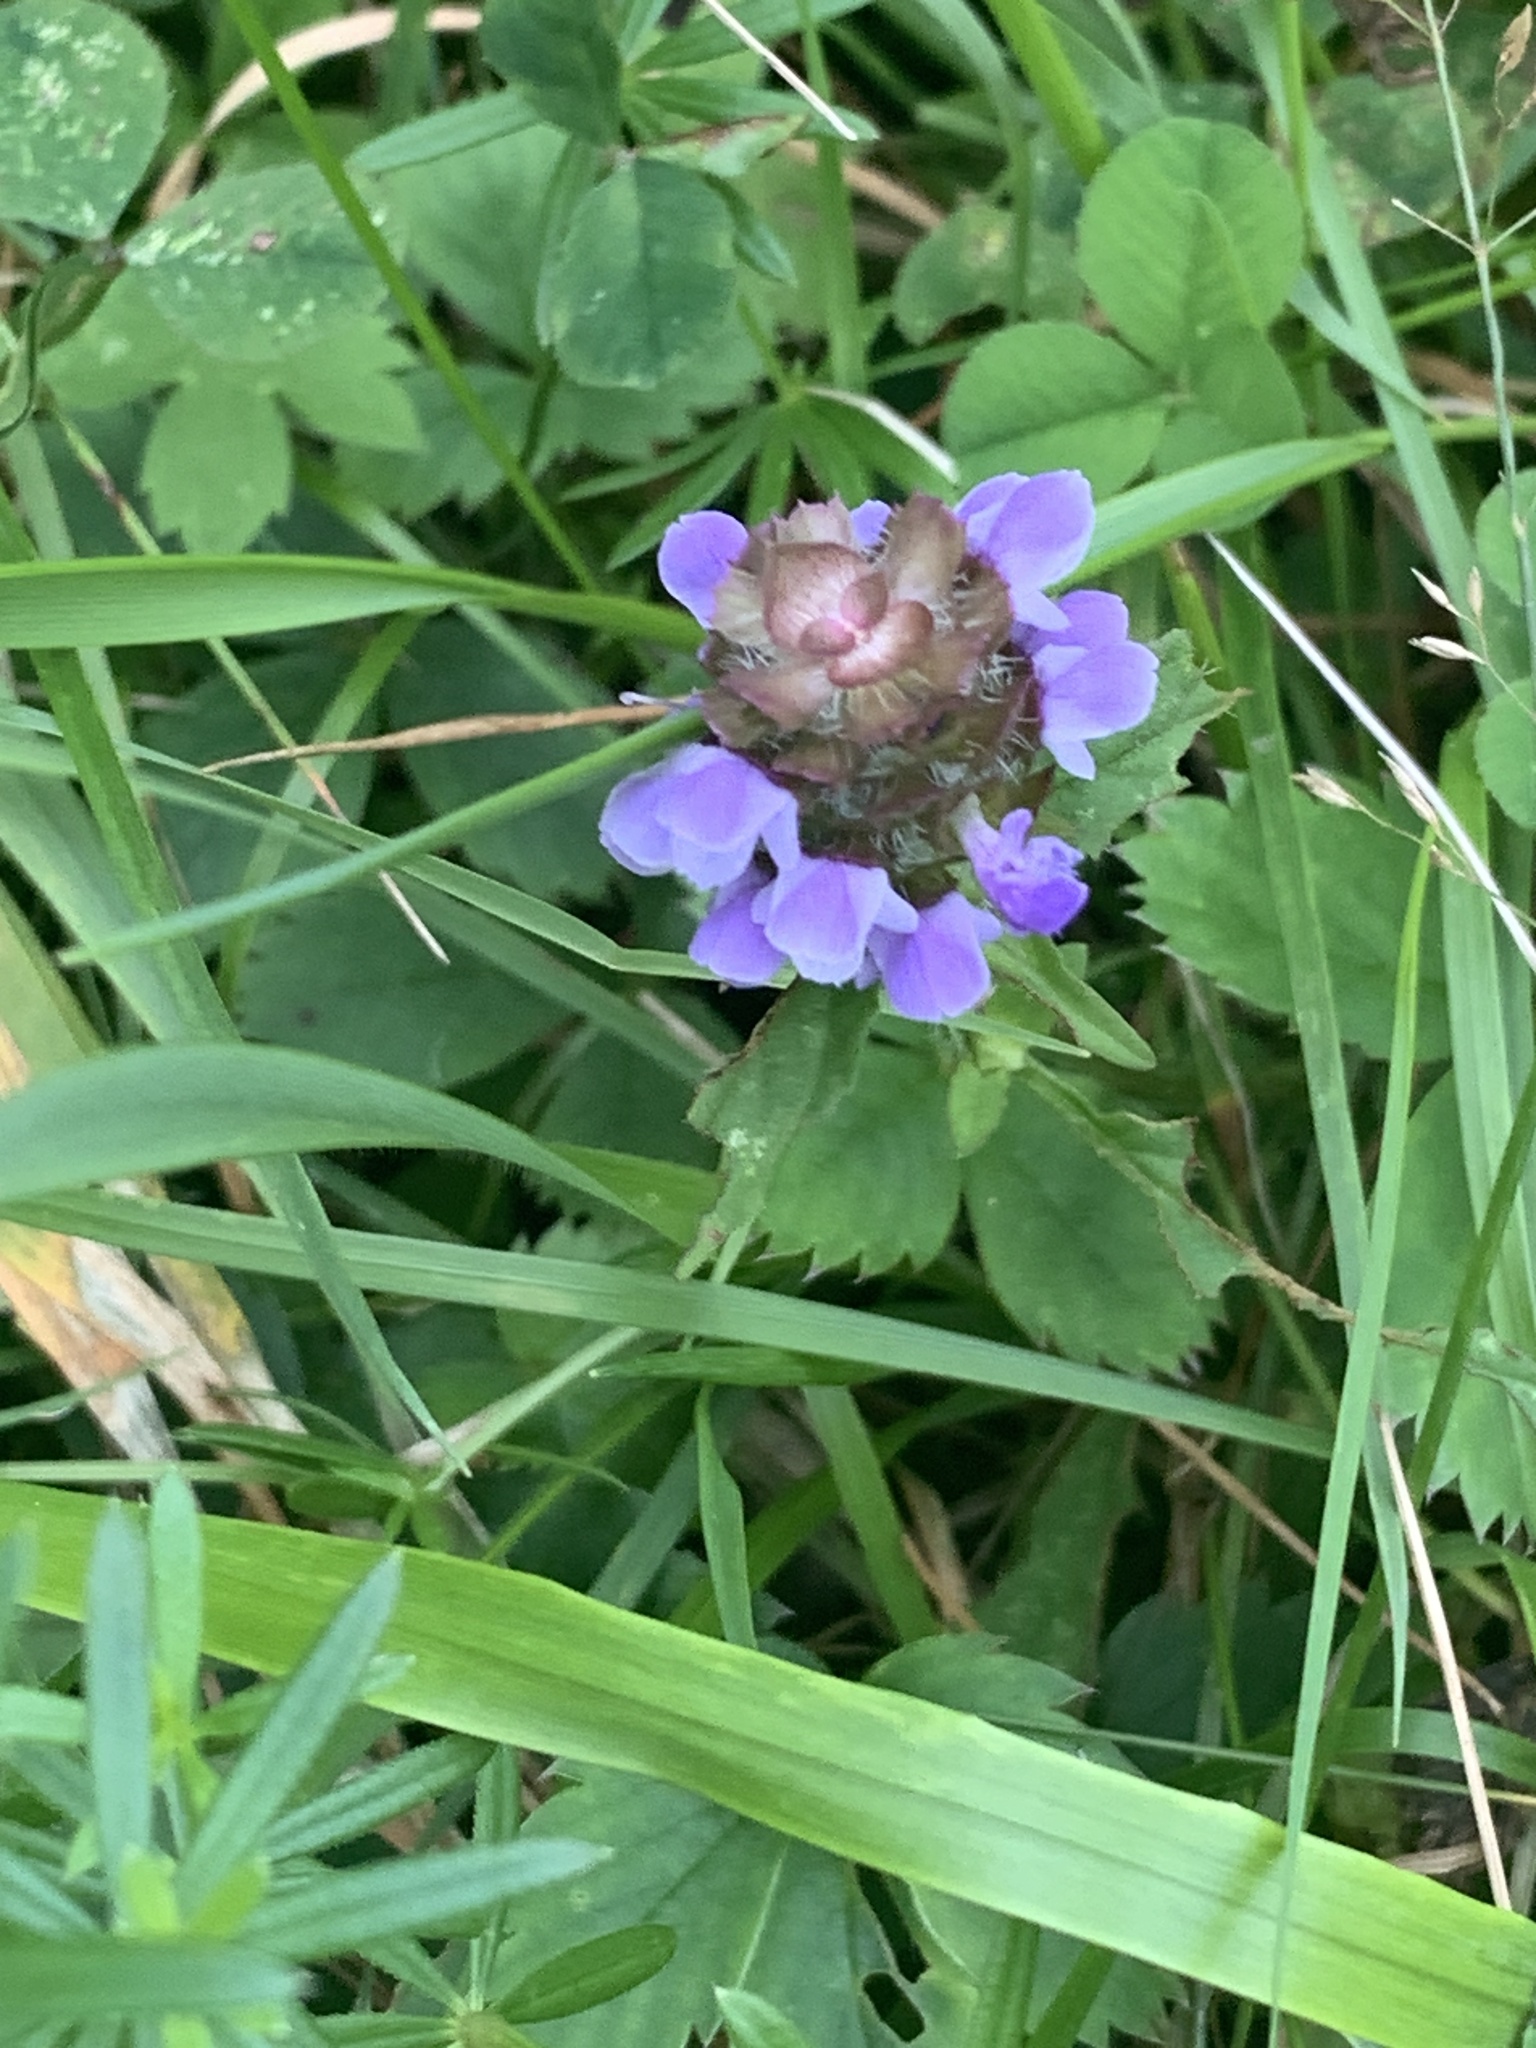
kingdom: Plantae
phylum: Tracheophyta
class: Magnoliopsida
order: Lamiales
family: Lamiaceae
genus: Prunella
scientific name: Prunella vulgaris
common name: Heal-all
